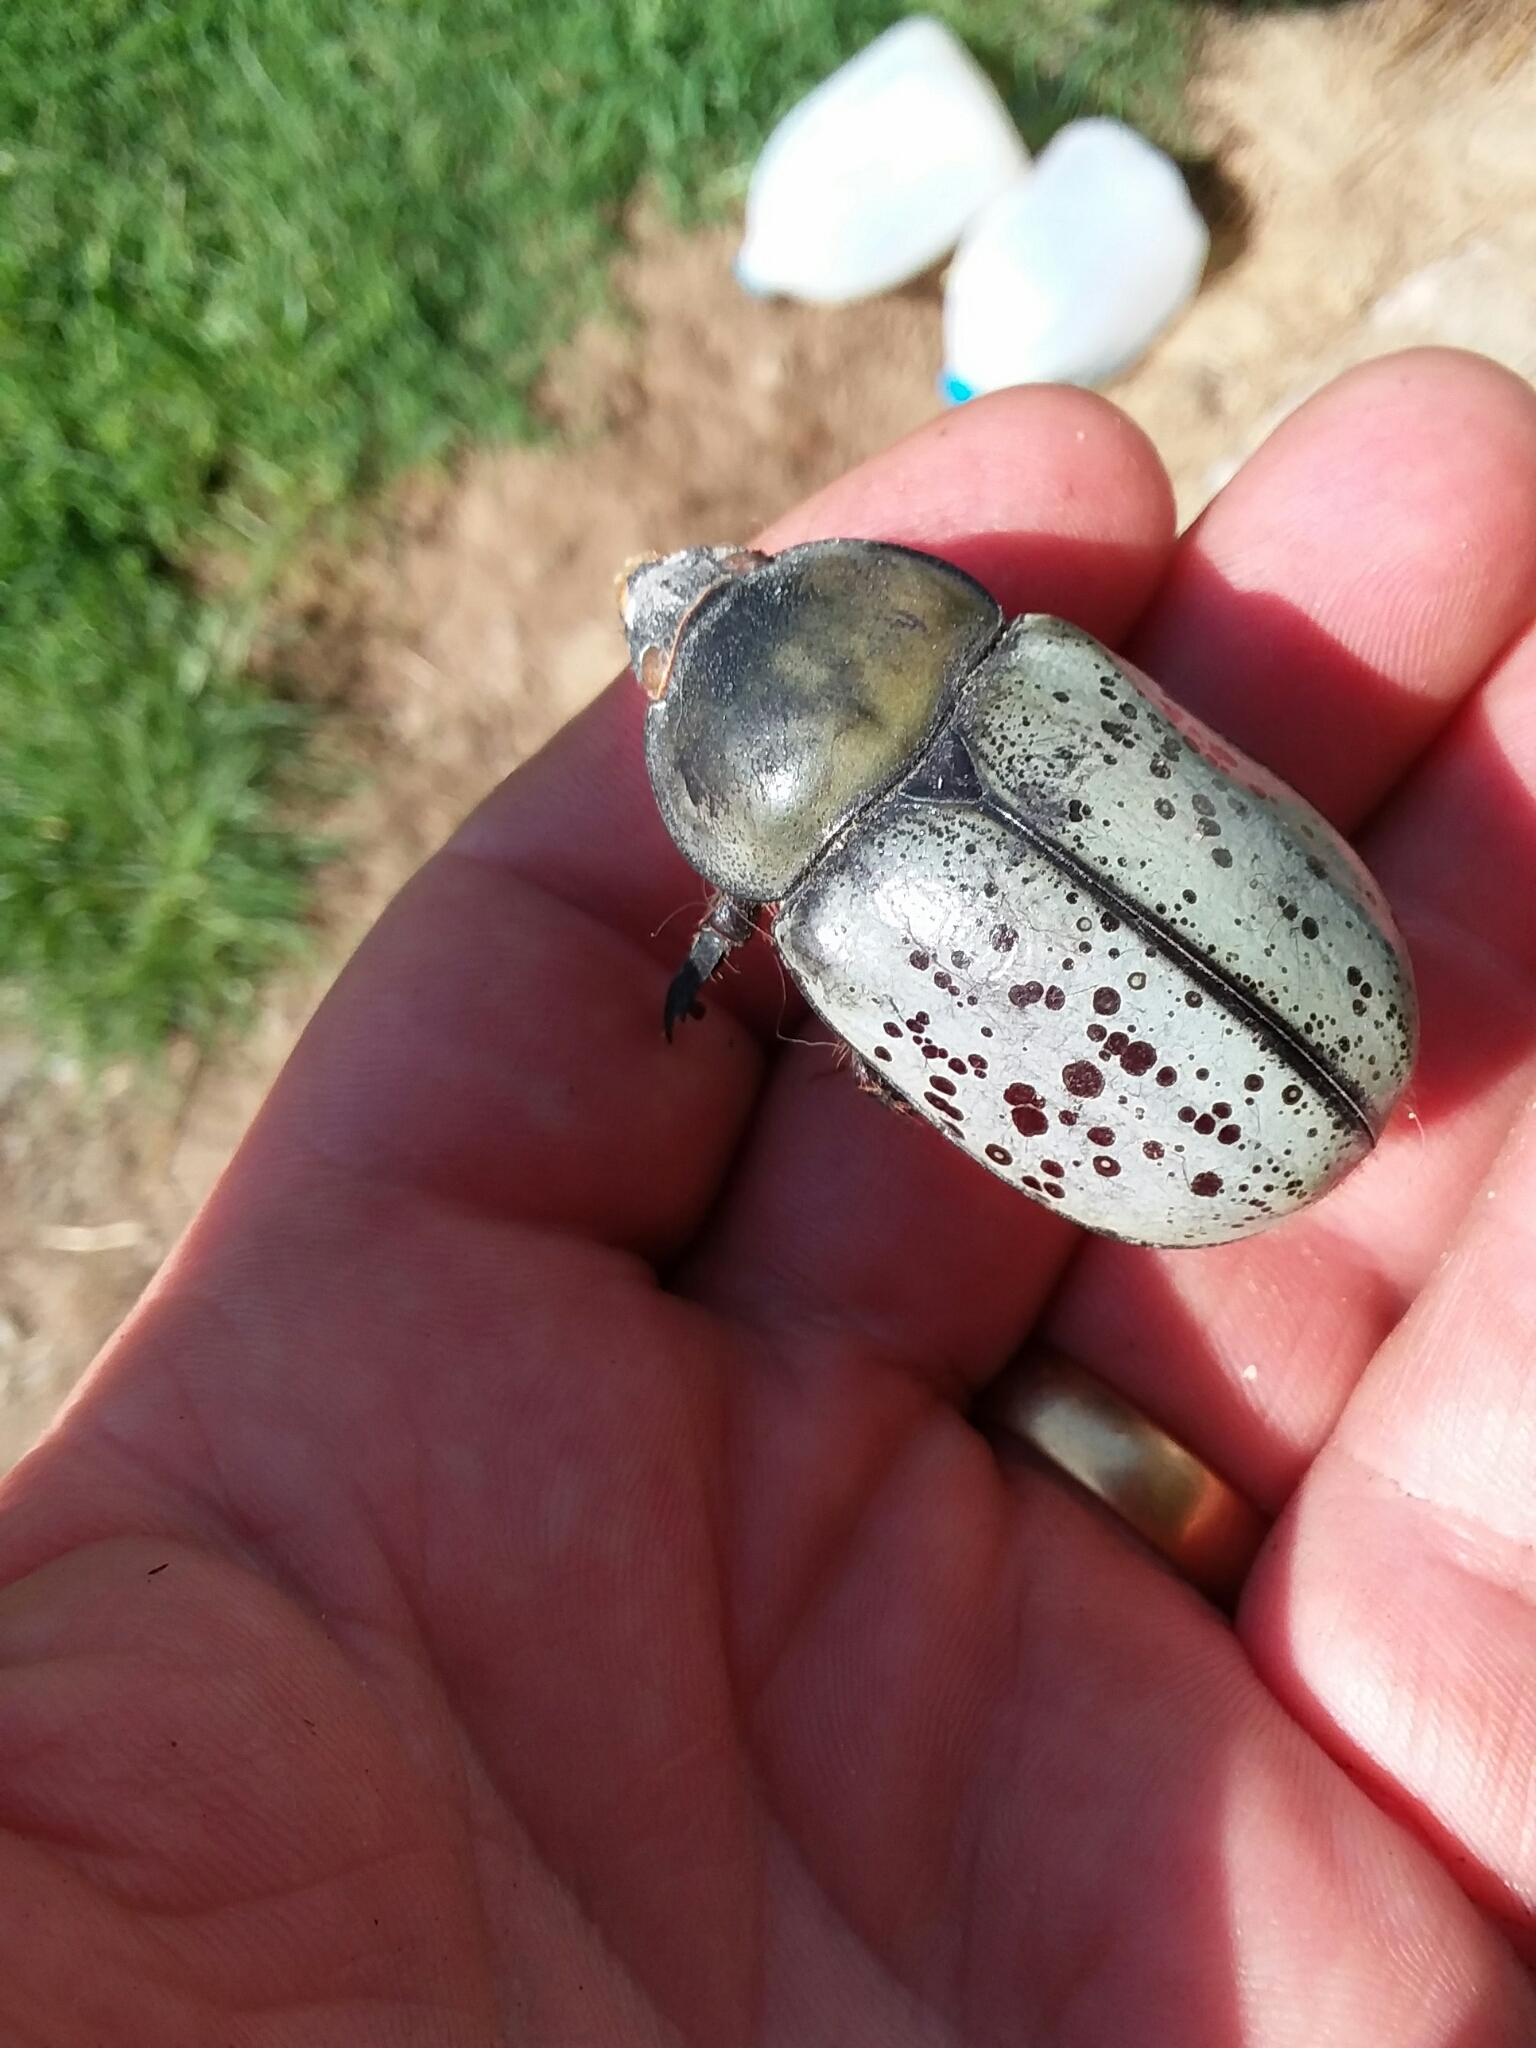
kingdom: Animalia
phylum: Arthropoda
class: Insecta
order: Coleoptera
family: Scarabaeidae
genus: Dynastes
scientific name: Dynastes tityus
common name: Eastern hercules beetle
